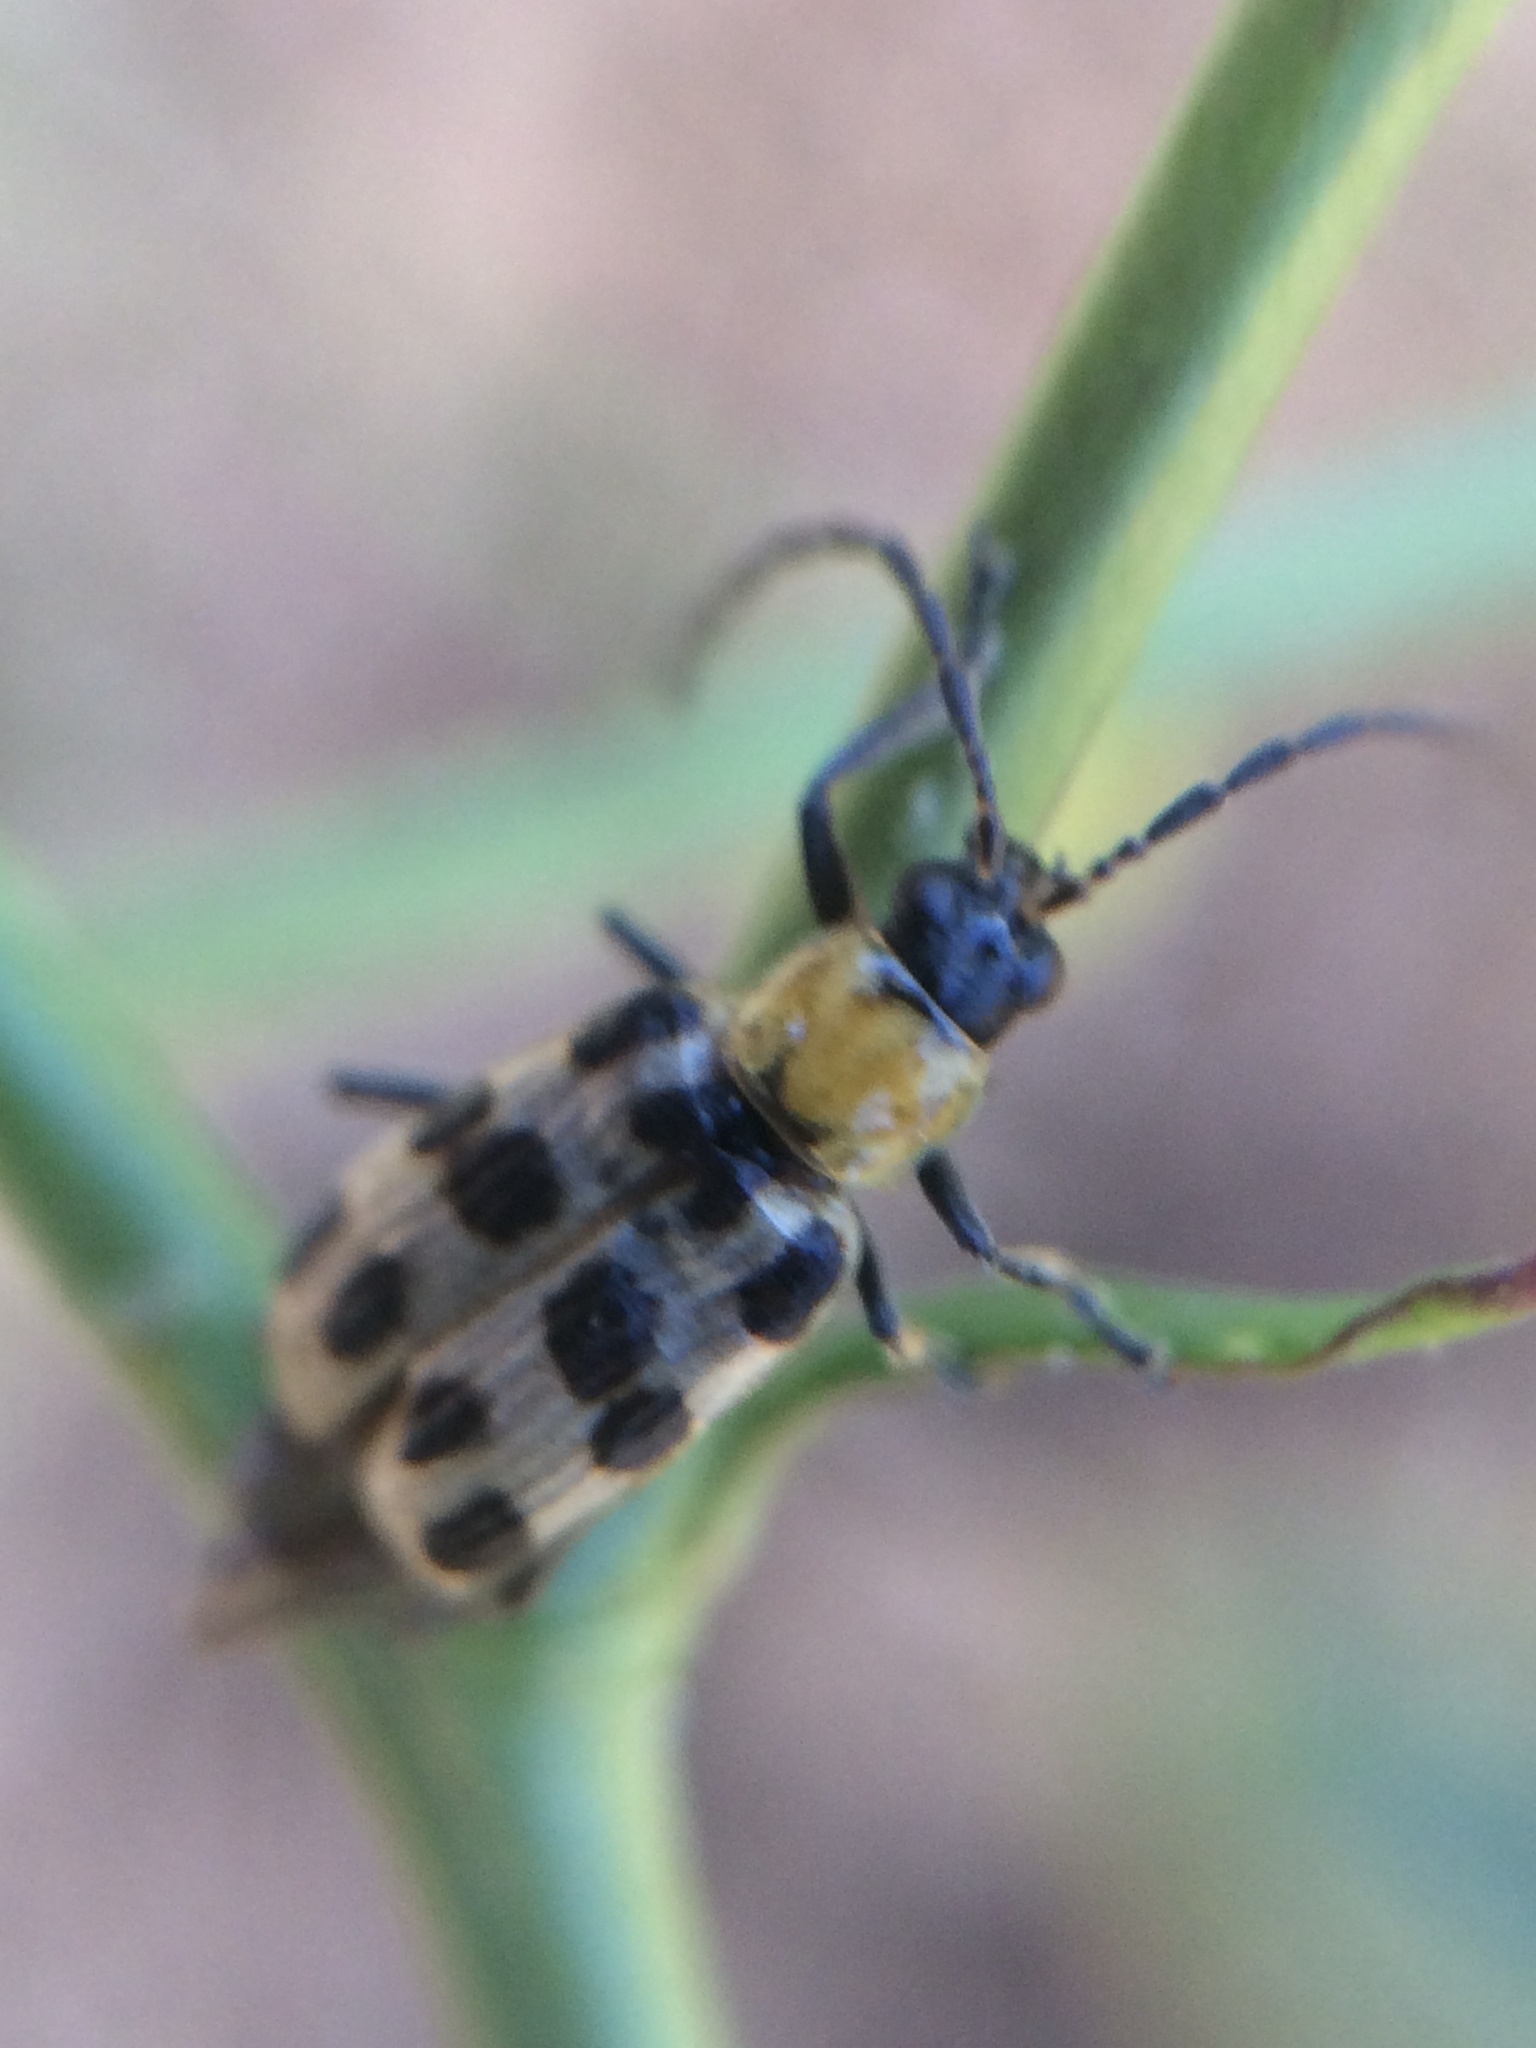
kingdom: Animalia
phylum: Arthropoda
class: Insecta
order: Coleoptera
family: Chrysomelidae
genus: Diabrotica
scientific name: Diabrotica undecimpunctata
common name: Spotted cucumber beetle
